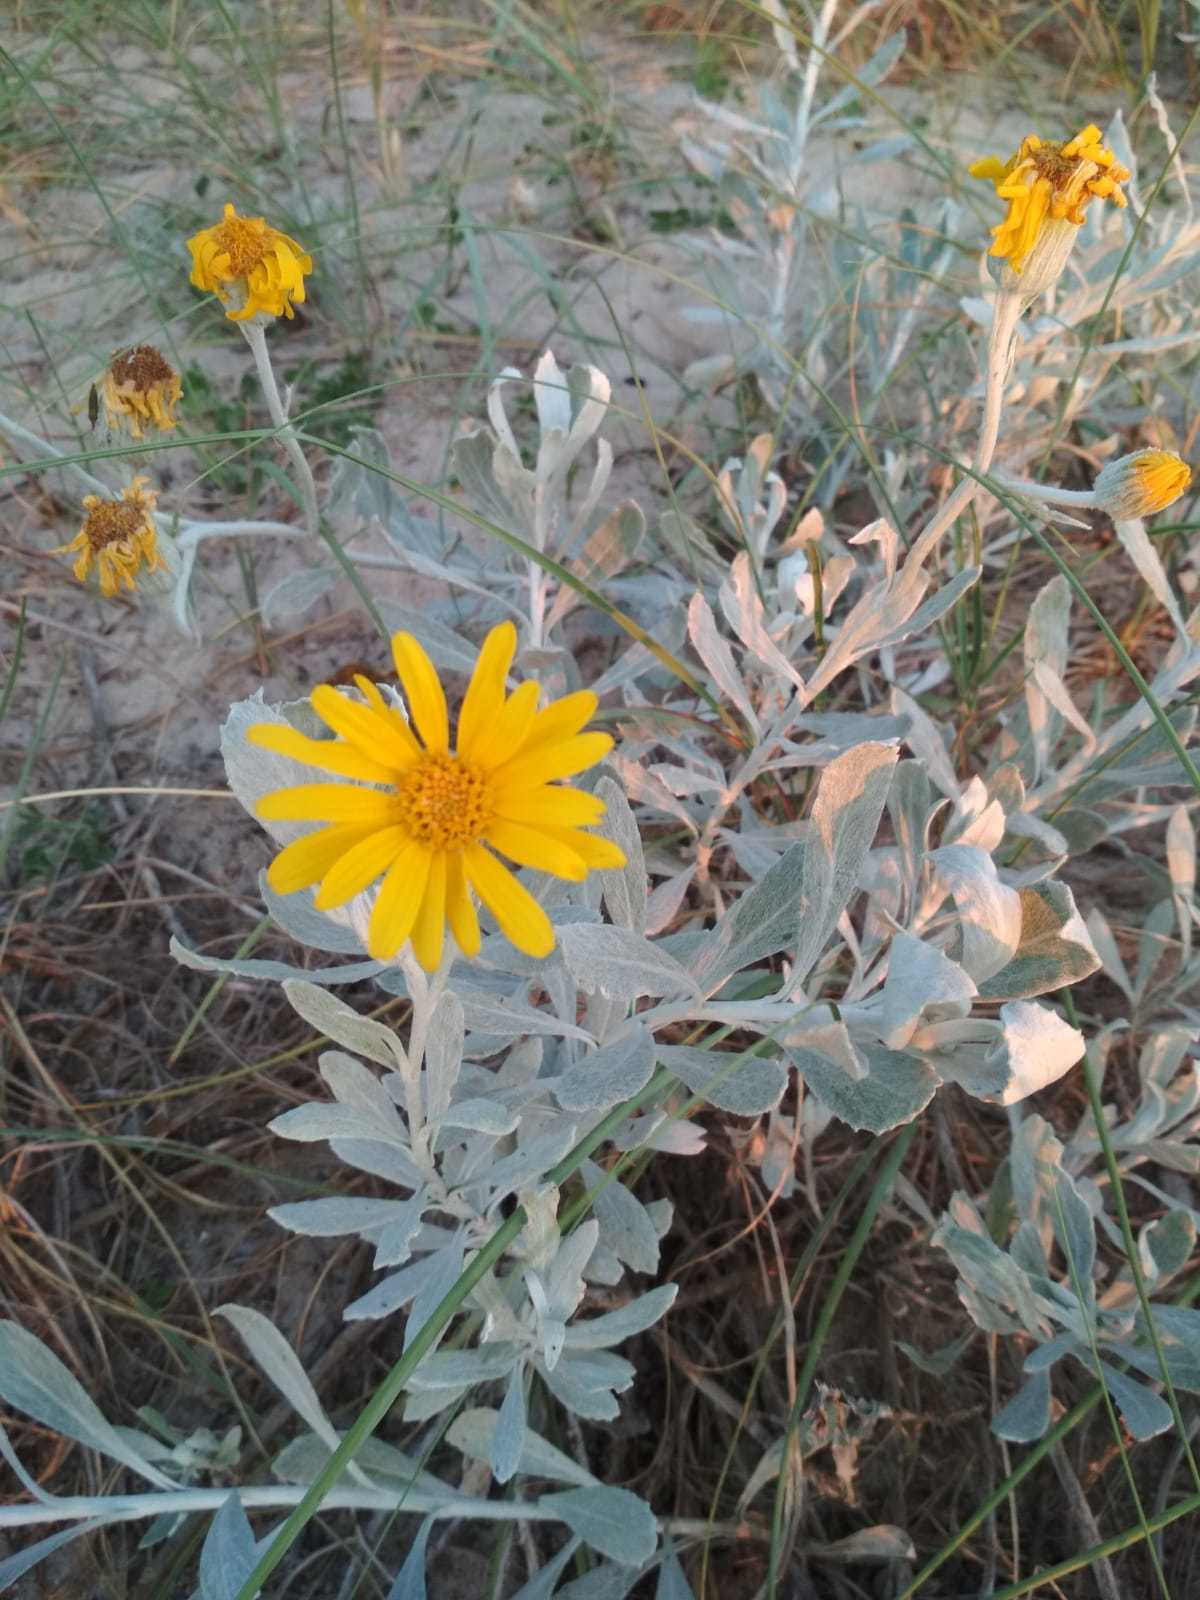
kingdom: Plantae
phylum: Tracheophyta
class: Magnoliopsida
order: Asterales
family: Asteraceae
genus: Senecio
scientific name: Senecio crassiflorus
